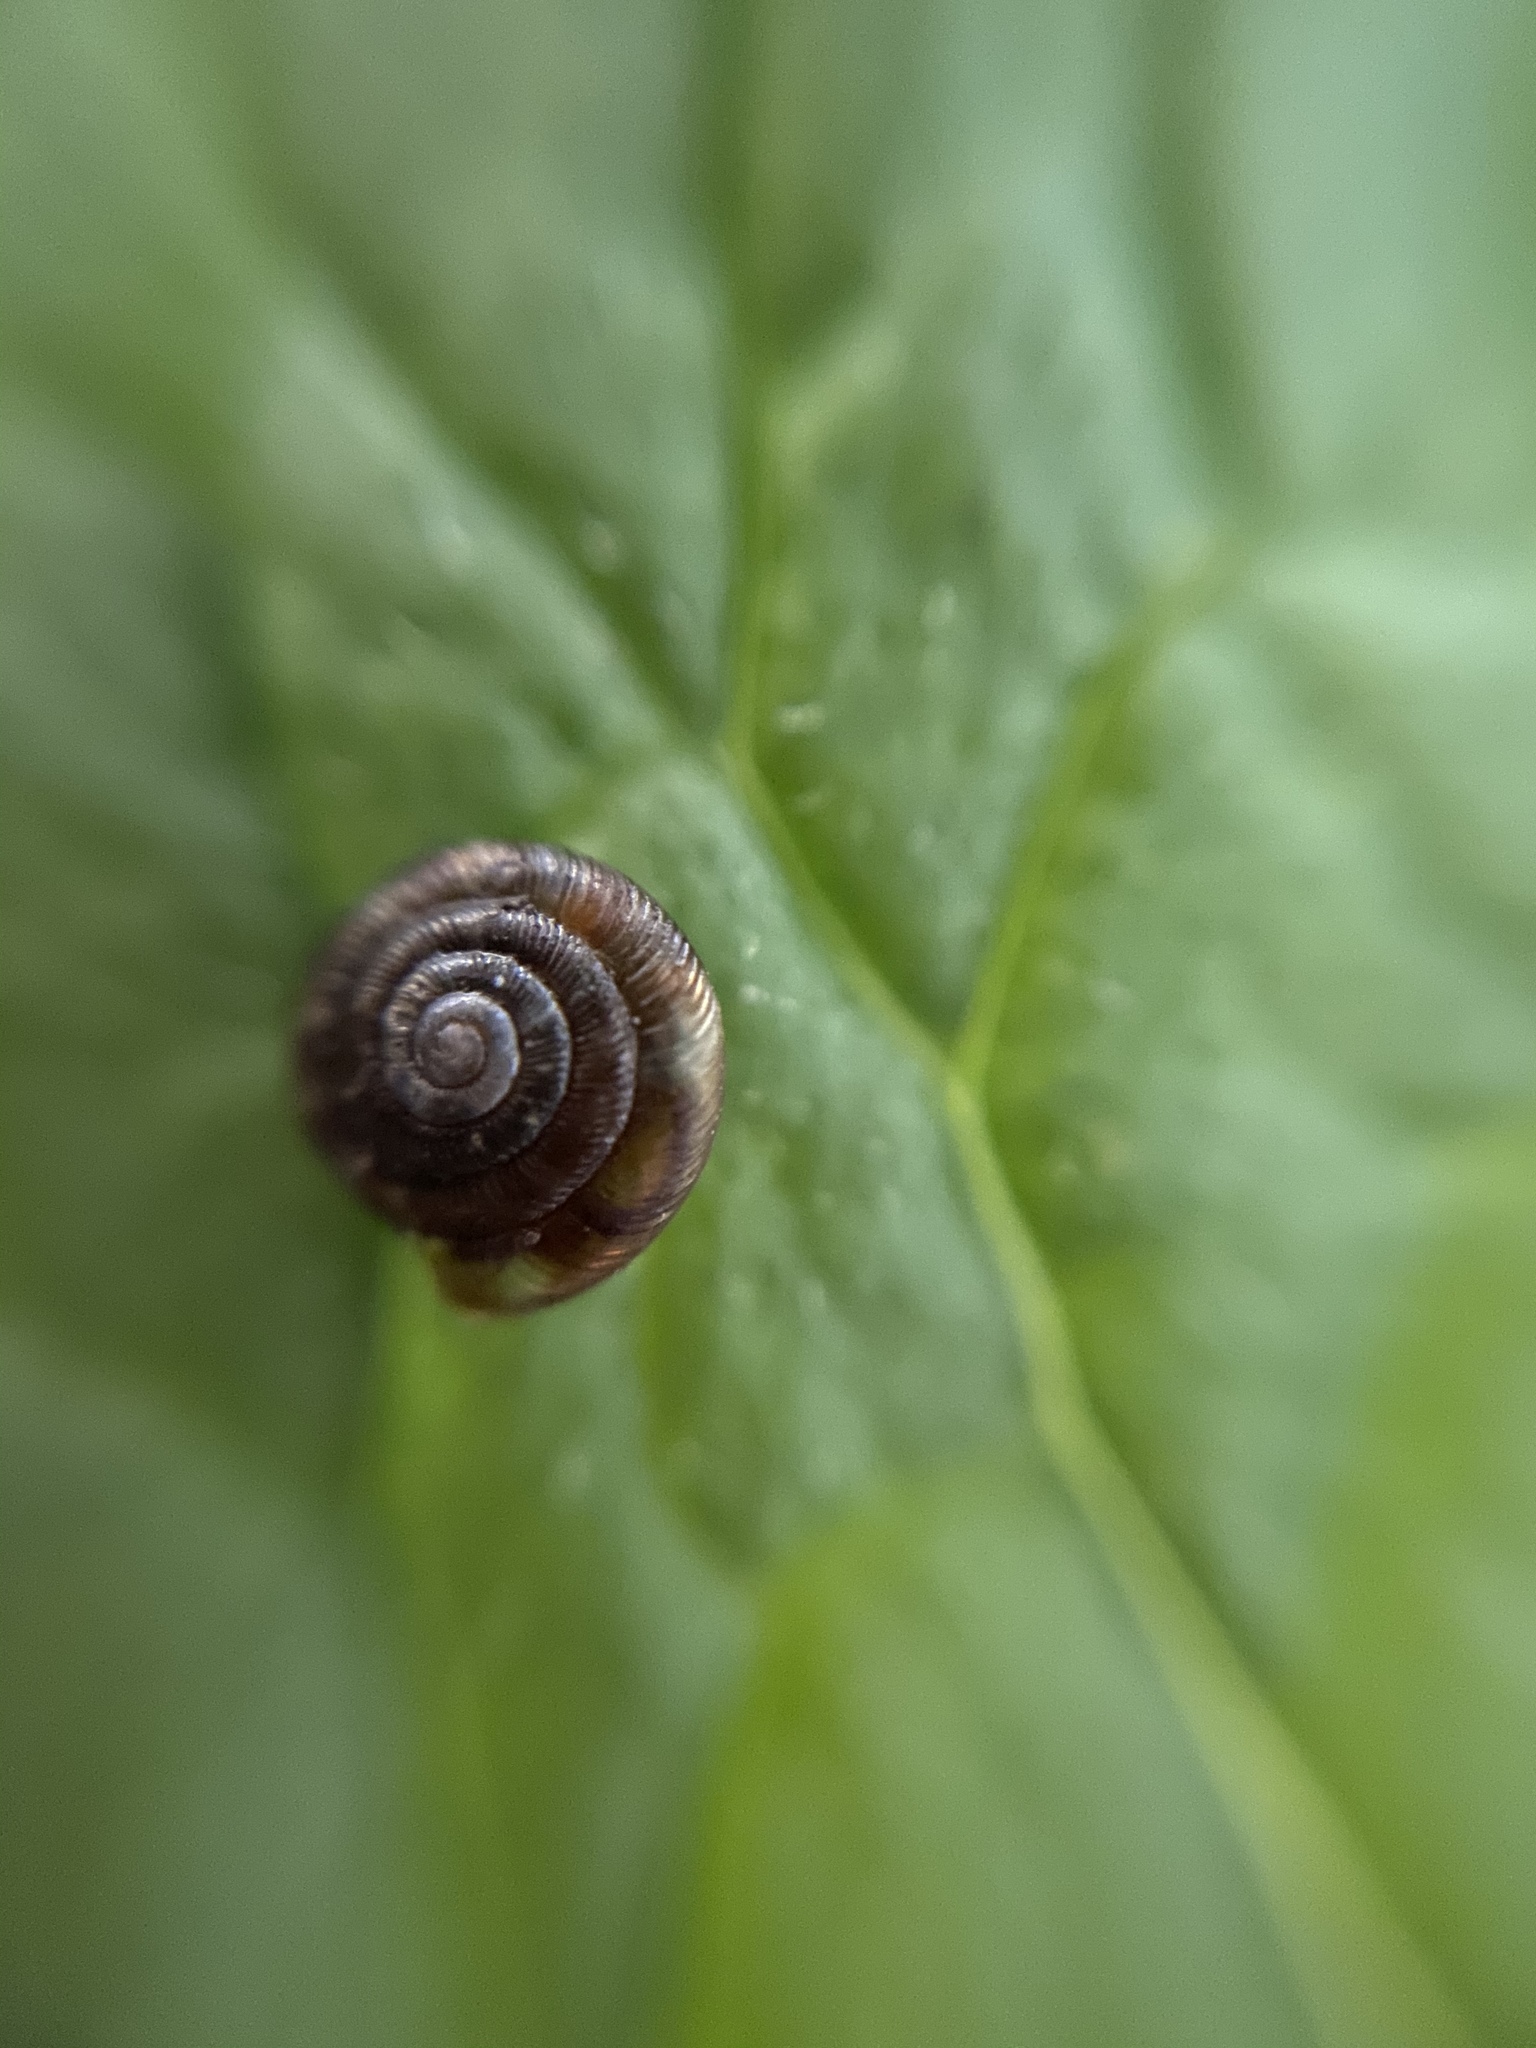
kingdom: Animalia
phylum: Mollusca
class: Gastropoda
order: Stylommatophora
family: Discidae
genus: Discus
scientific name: Discus rotundatus
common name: Rounded snail
